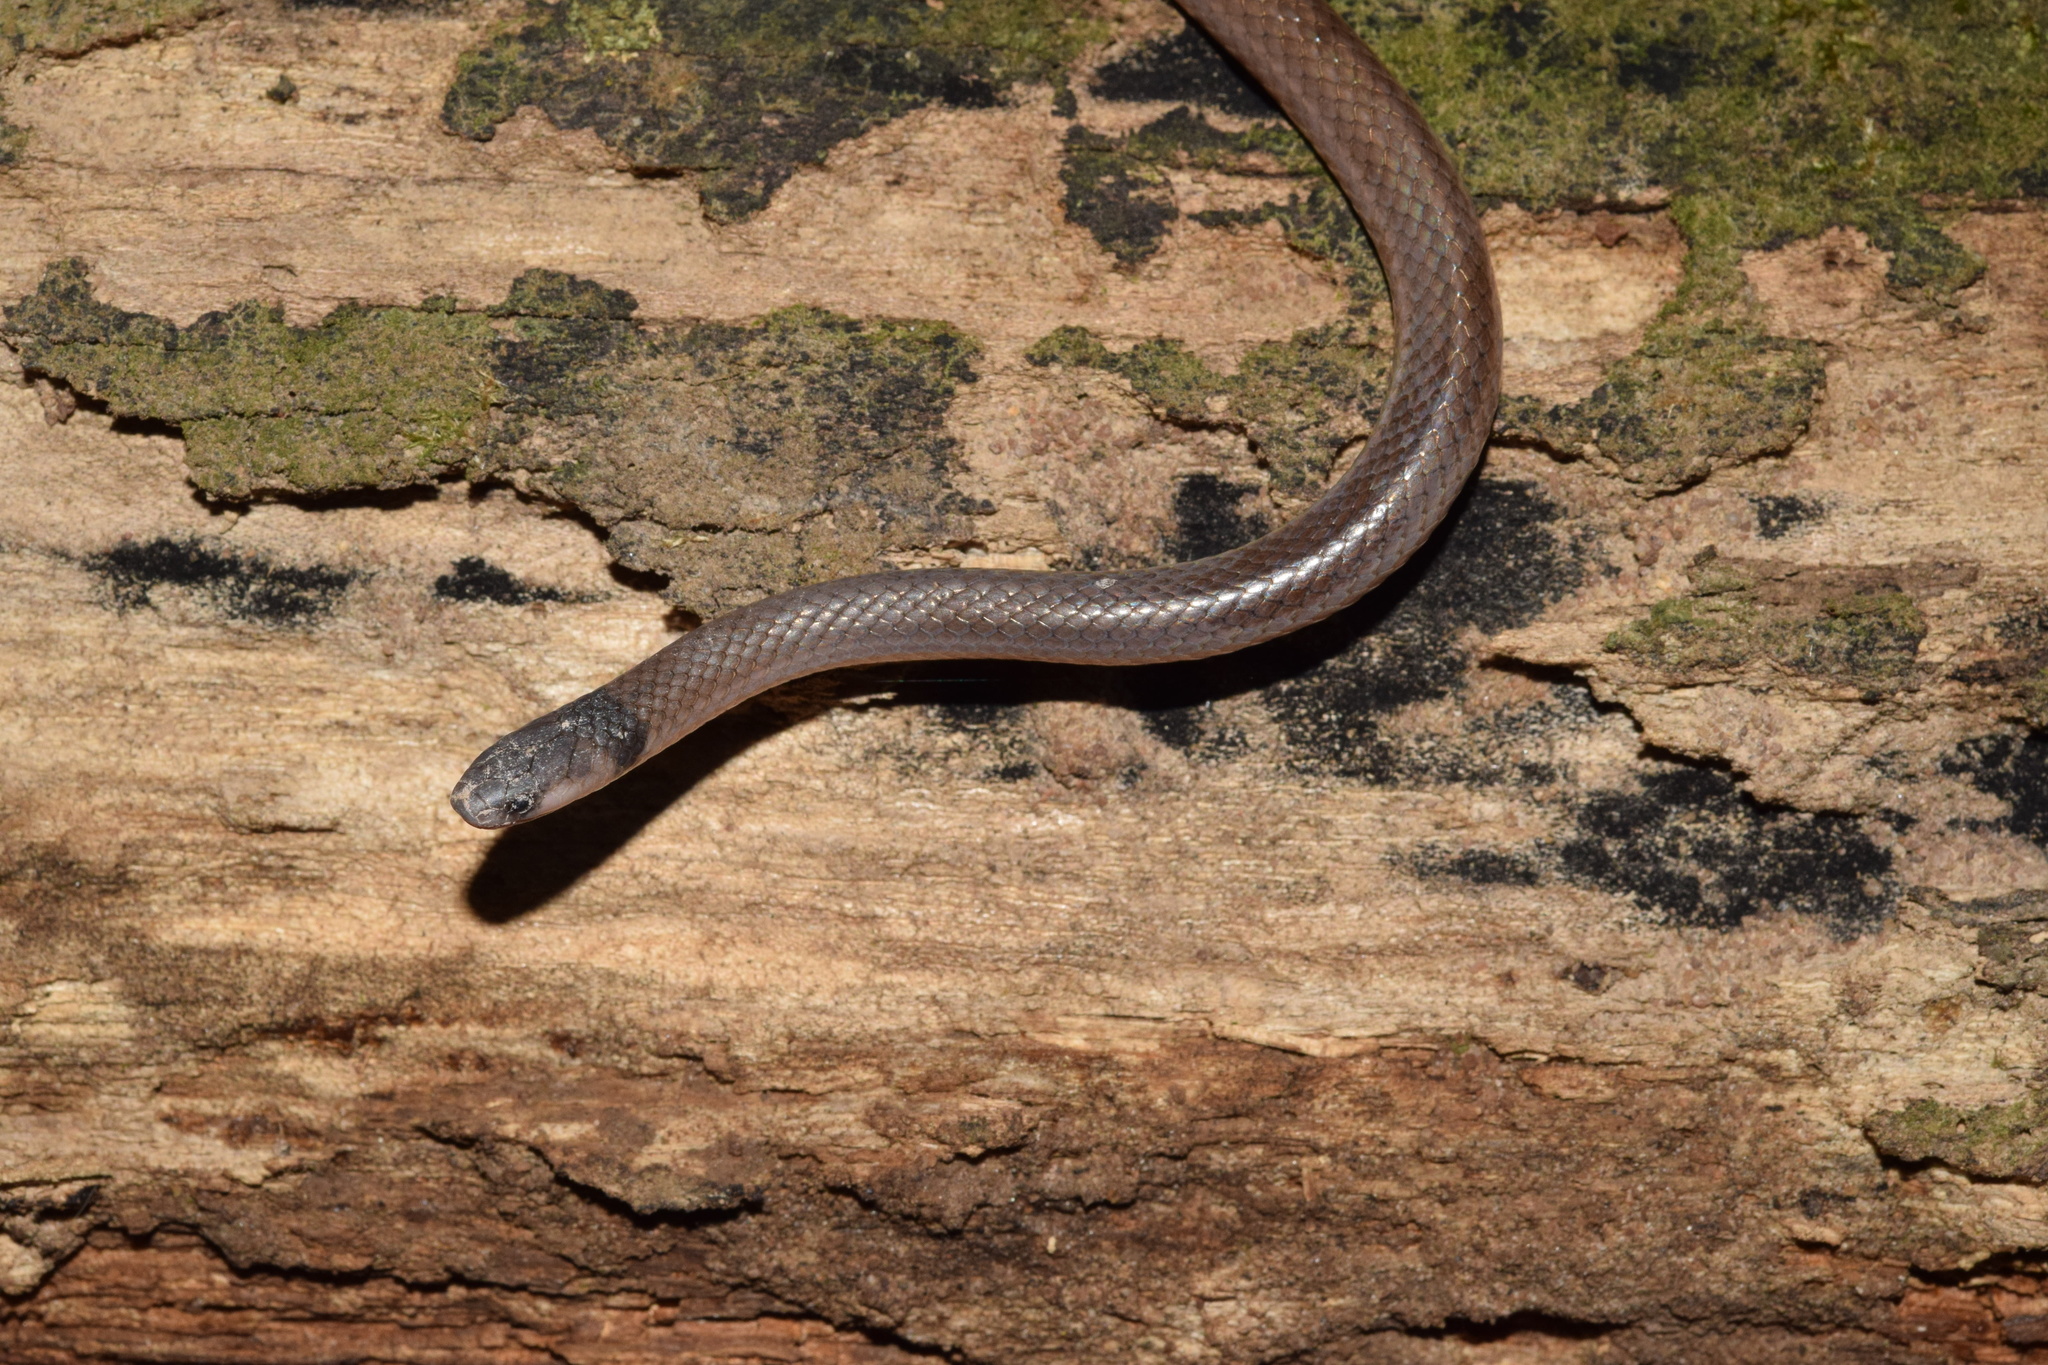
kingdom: Animalia
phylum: Chordata
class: Squamata
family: Atractaspididae
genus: Aparallactus
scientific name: Aparallactus capensis
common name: Cape centipede eater
